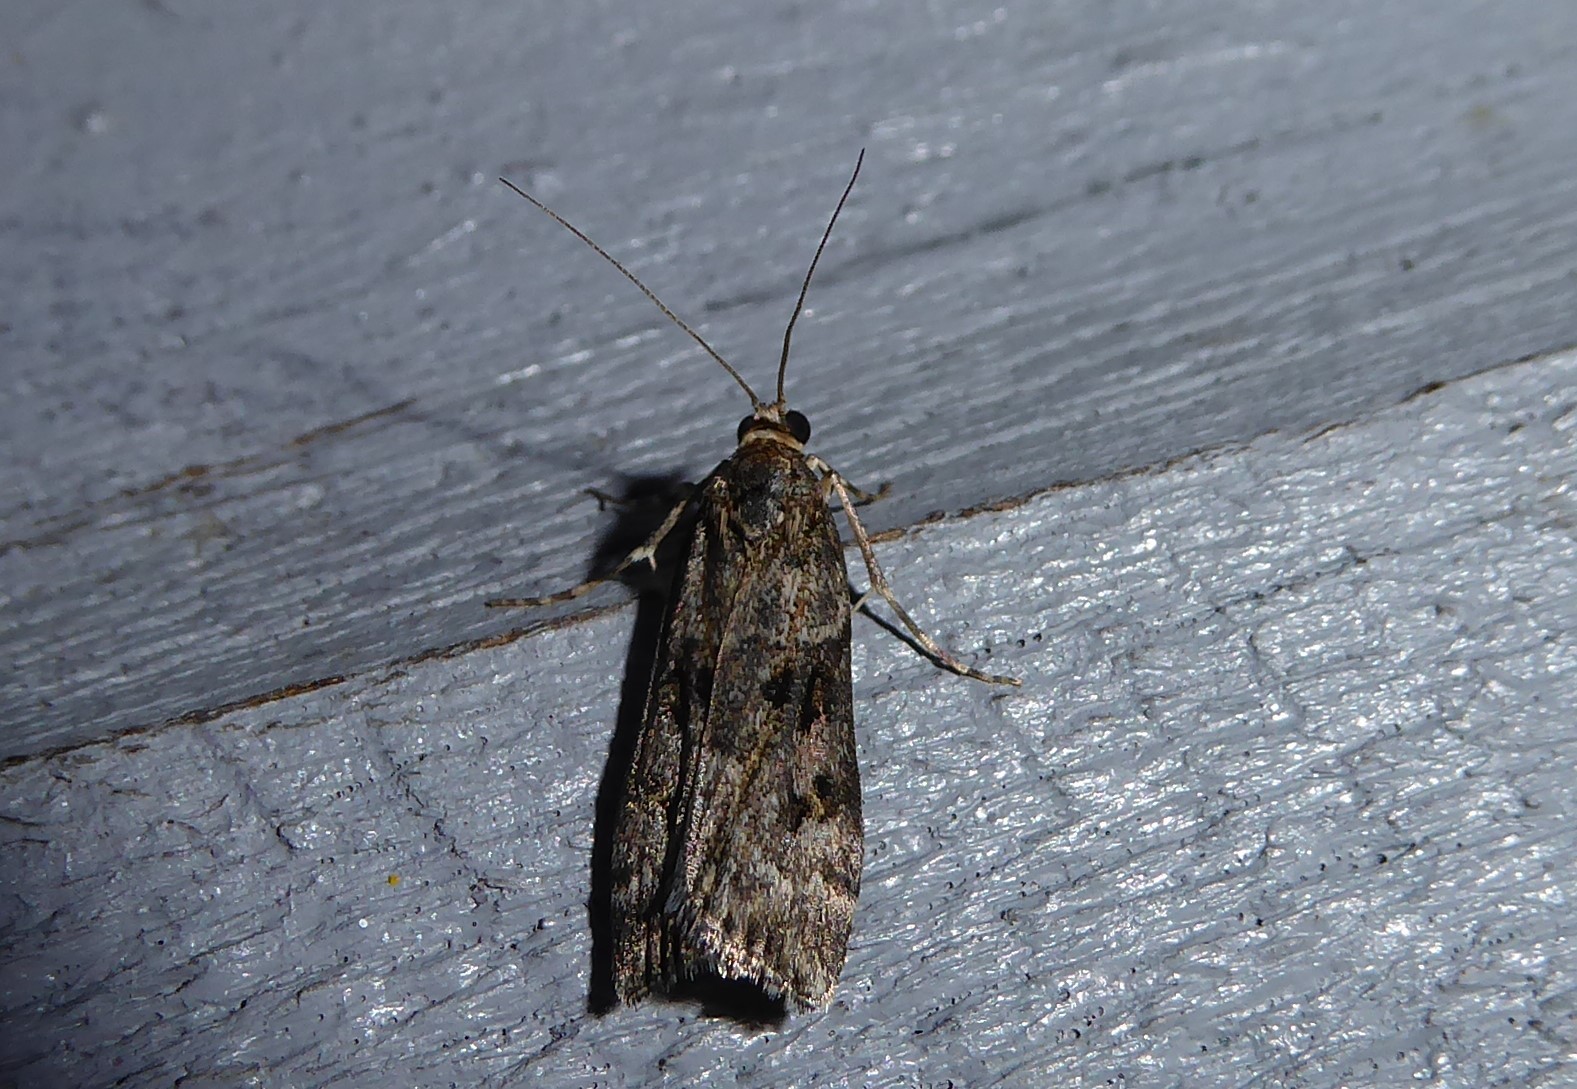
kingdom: Animalia
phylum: Arthropoda
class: Insecta
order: Lepidoptera
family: Crambidae
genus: Eudonia
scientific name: Eudonia submarginalis
